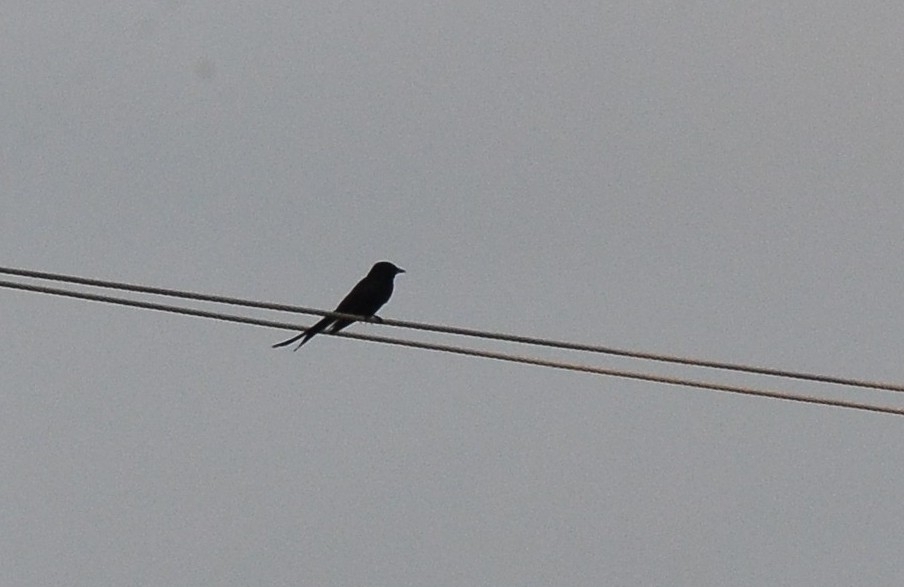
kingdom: Animalia
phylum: Chordata
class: Aves
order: Passeriformes
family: Dicruridae
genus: Dicrurus
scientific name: Dicrurus macrocercus
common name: Black drongo
